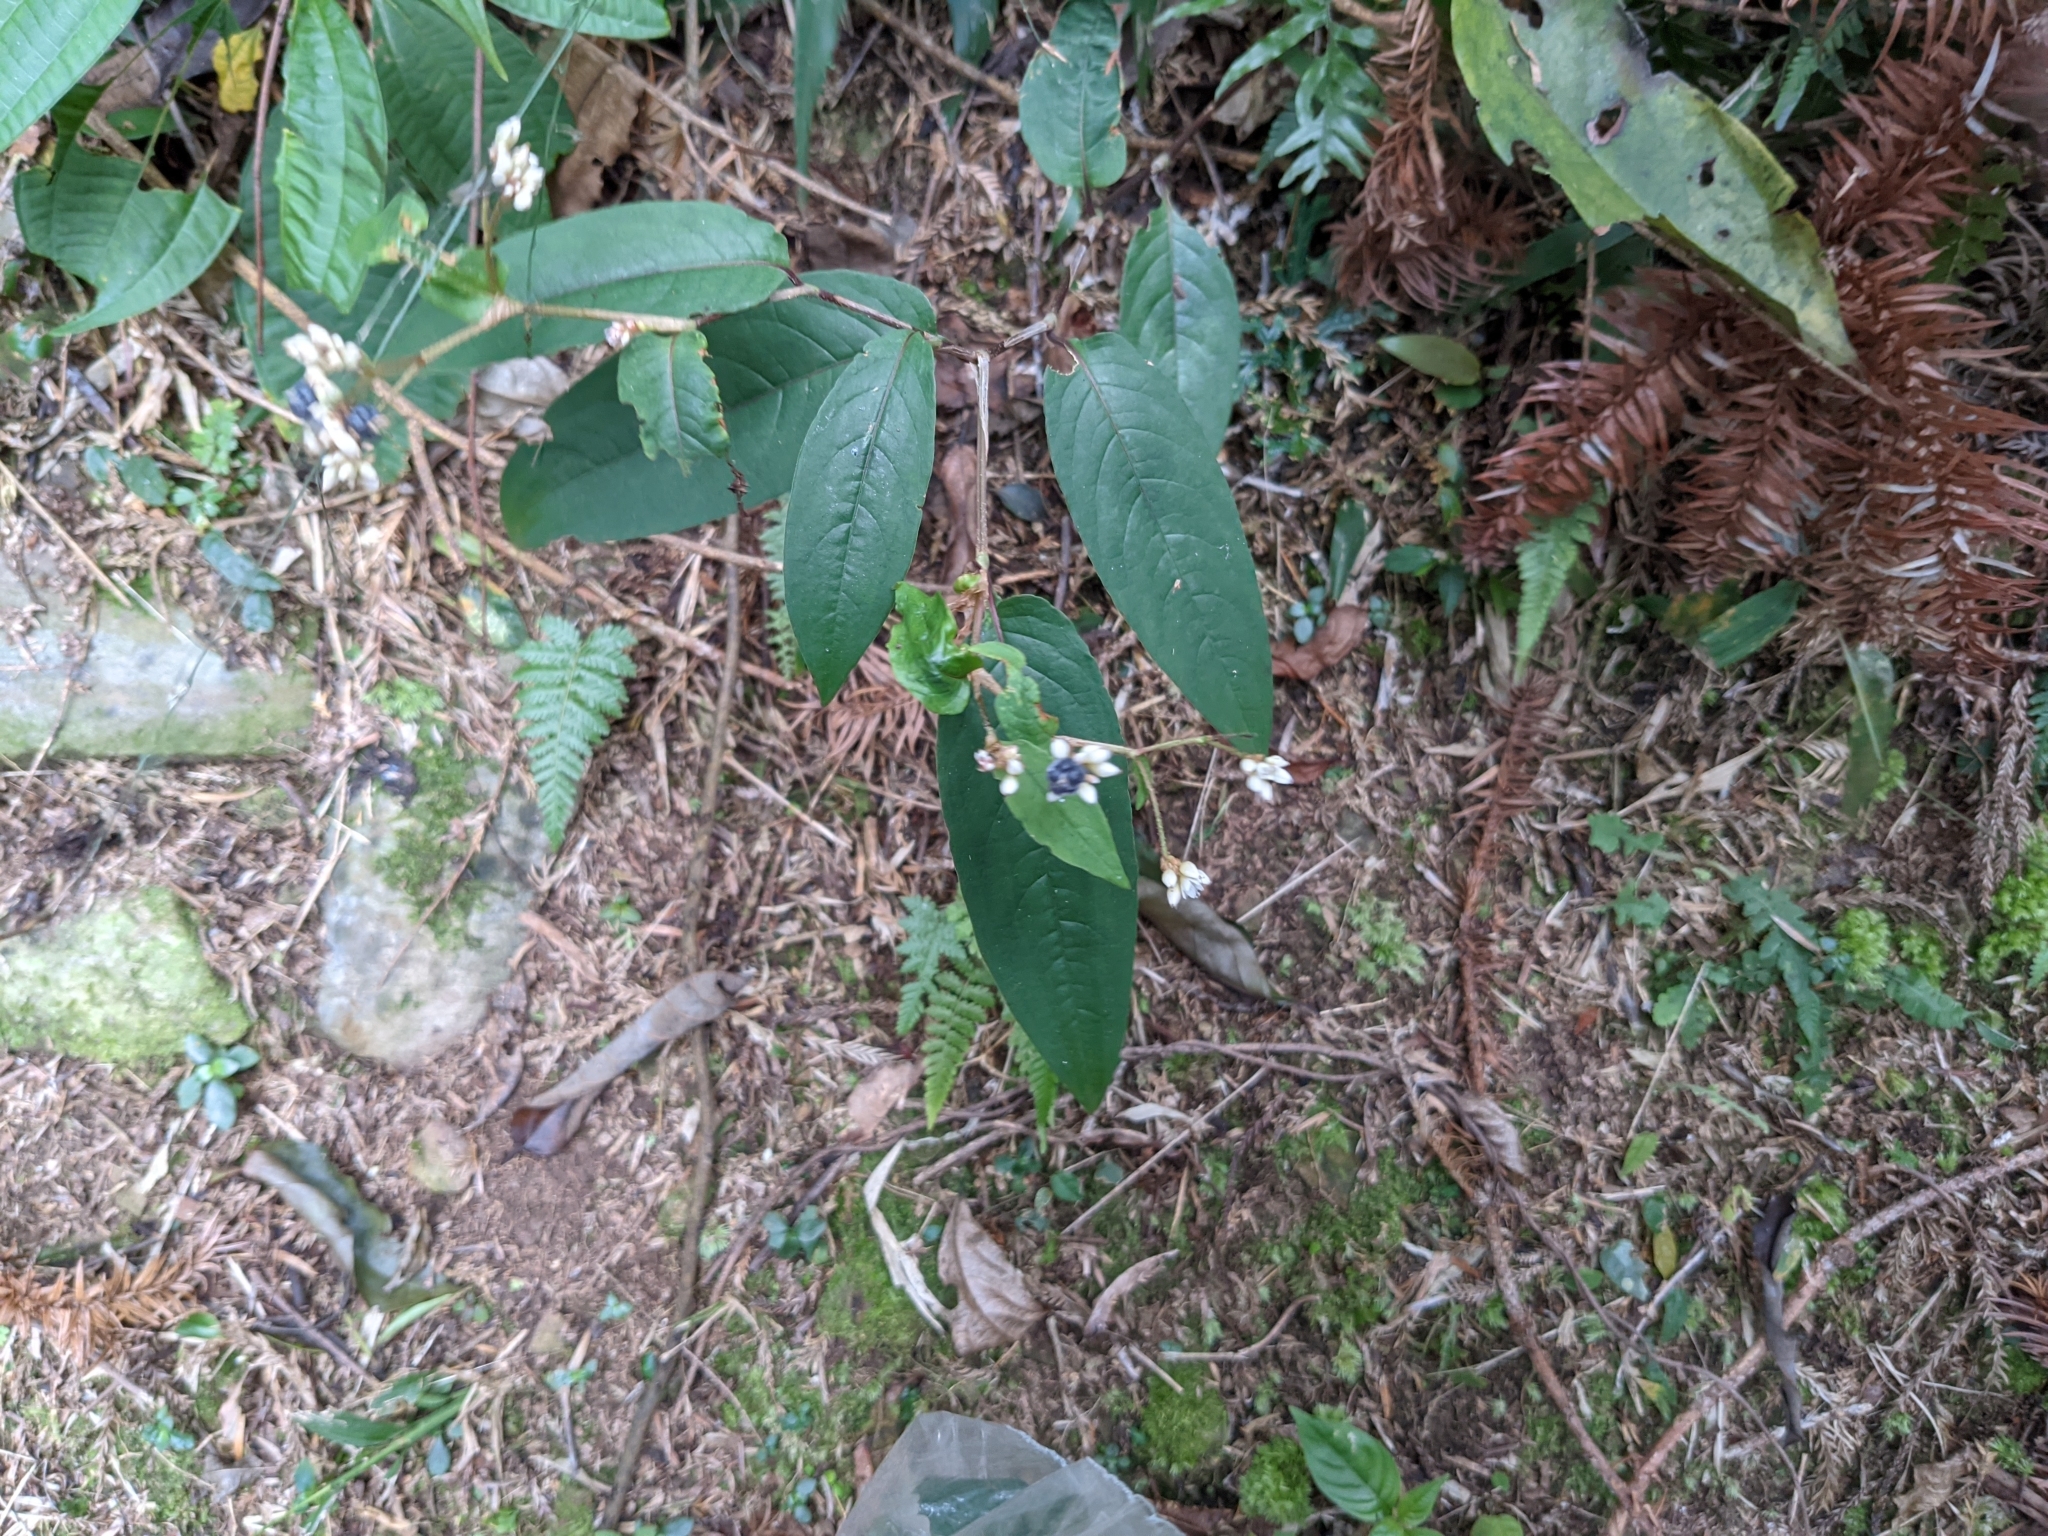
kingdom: Plantae
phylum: Tracheophyta
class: Magnoliopsida
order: Caryophyllales
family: Polygonaceae
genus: Persicaria
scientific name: Persicaria chinensis
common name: Chinese knotweed
